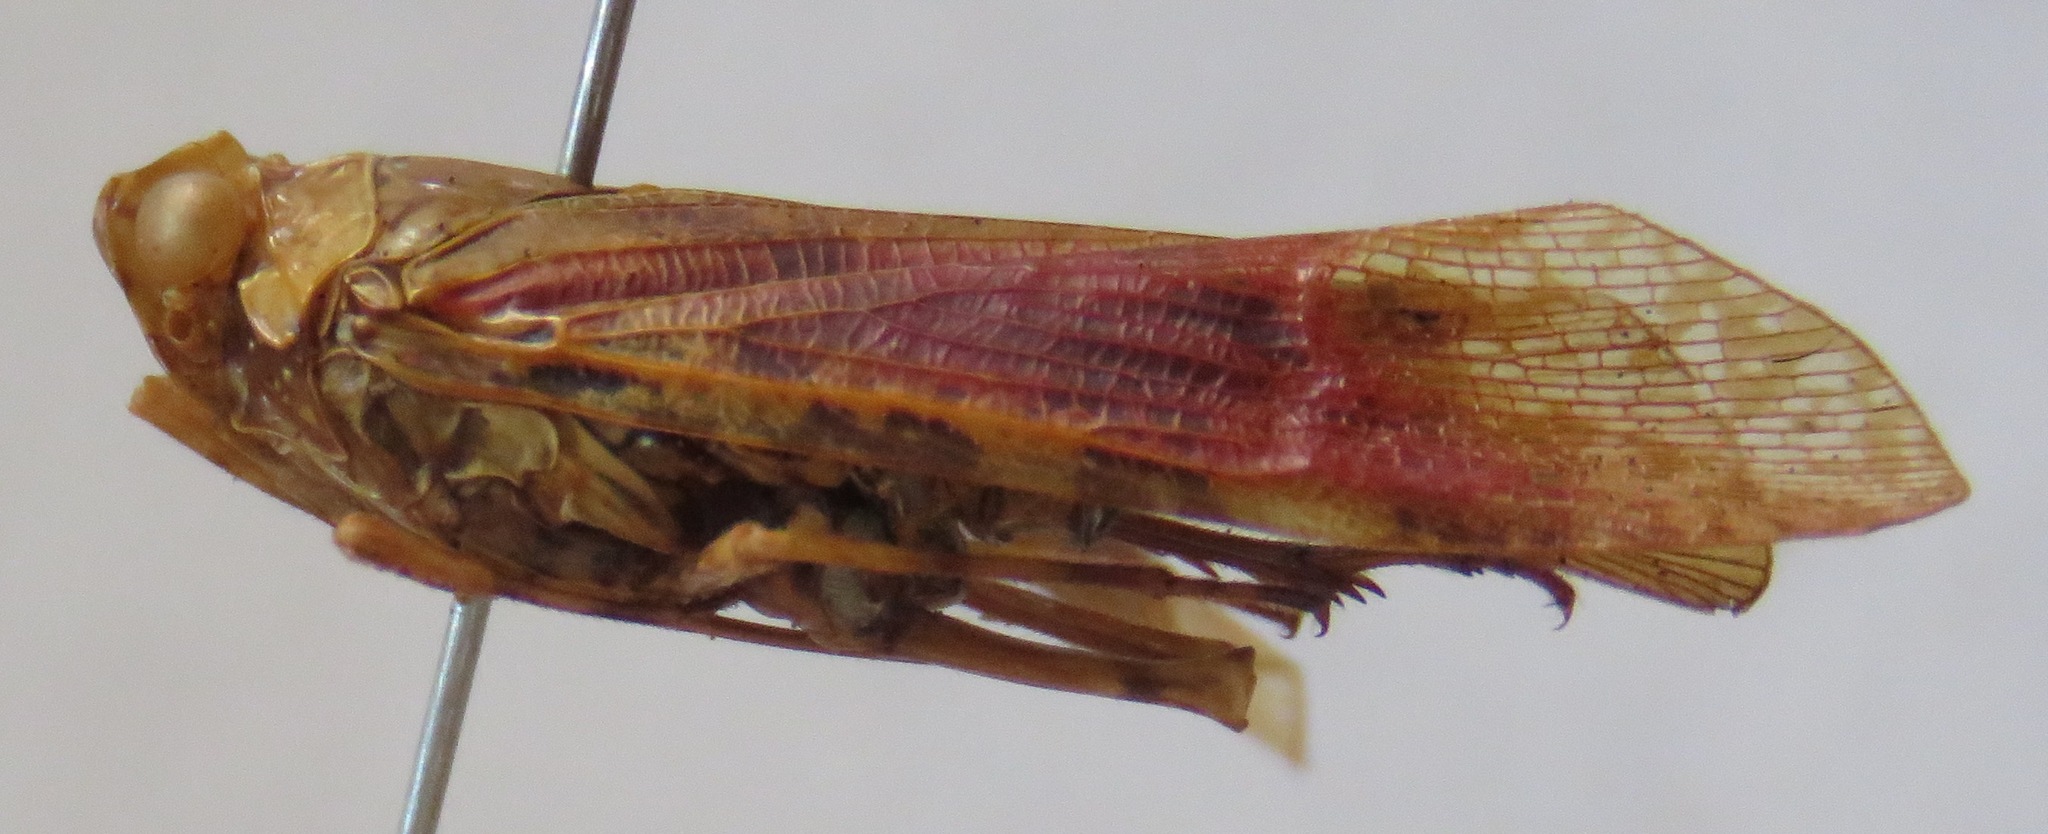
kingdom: Animalia
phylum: Arthropoda
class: Insecta
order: Hemiptera
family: Fulgoridae
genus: Echetra
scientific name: Echetra fucata
